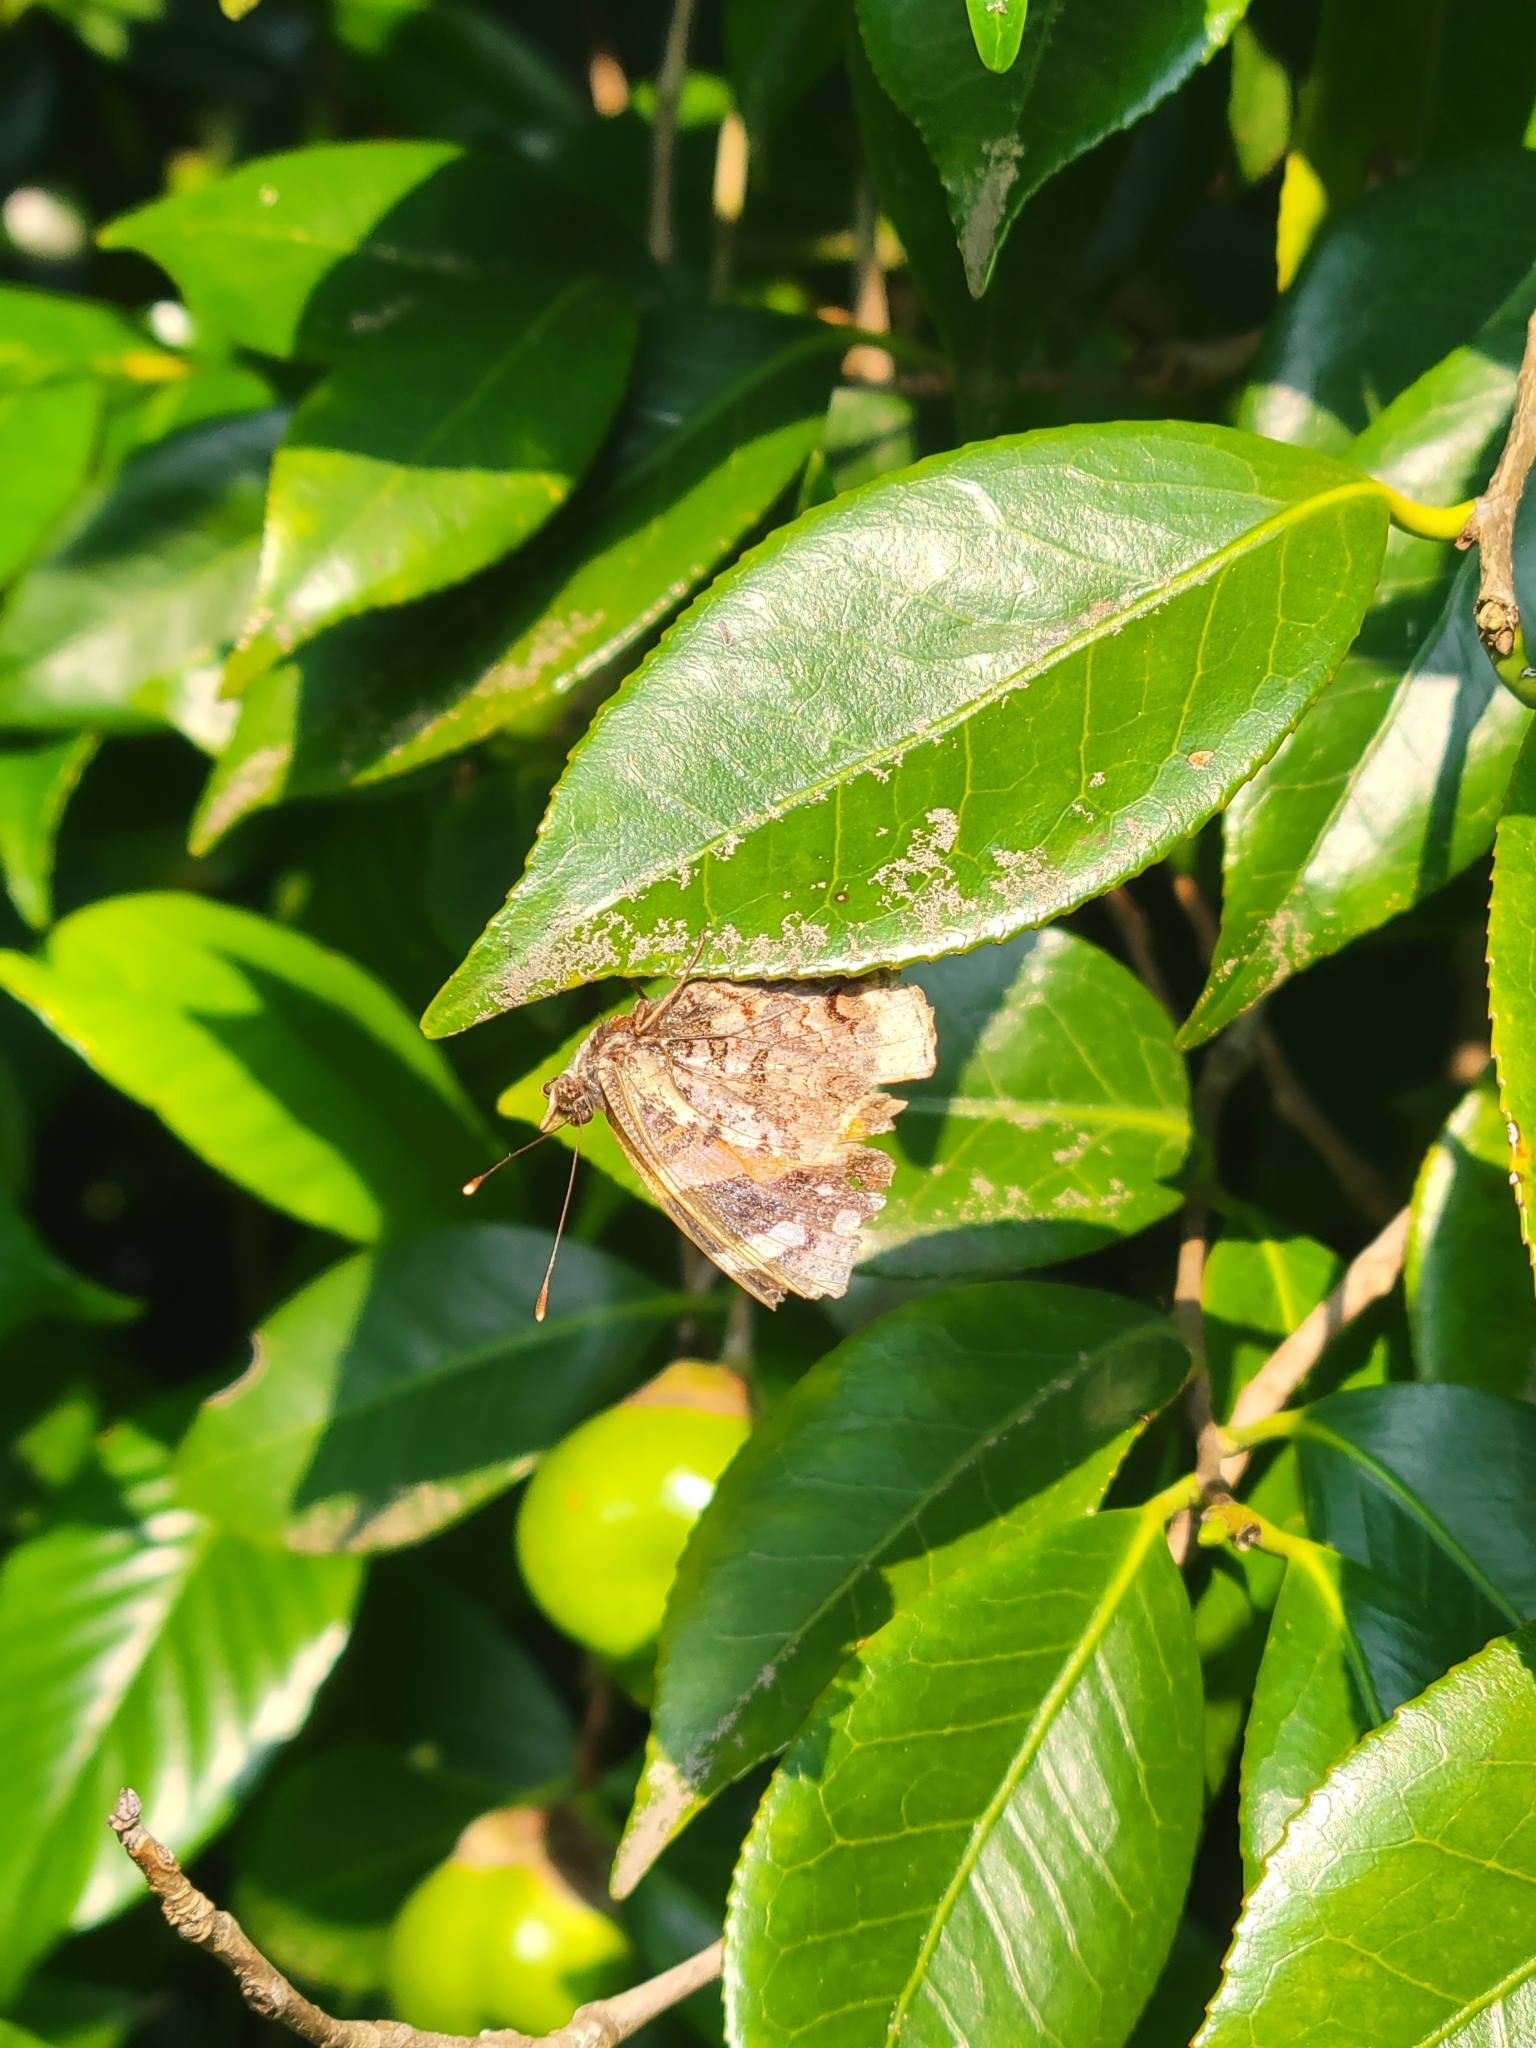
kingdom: Animalia
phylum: Arthropoda
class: Insecta
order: Lepidoptera
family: Nymphalidae
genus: Vanessa
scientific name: Vanessa atalanta
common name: Red admiral
